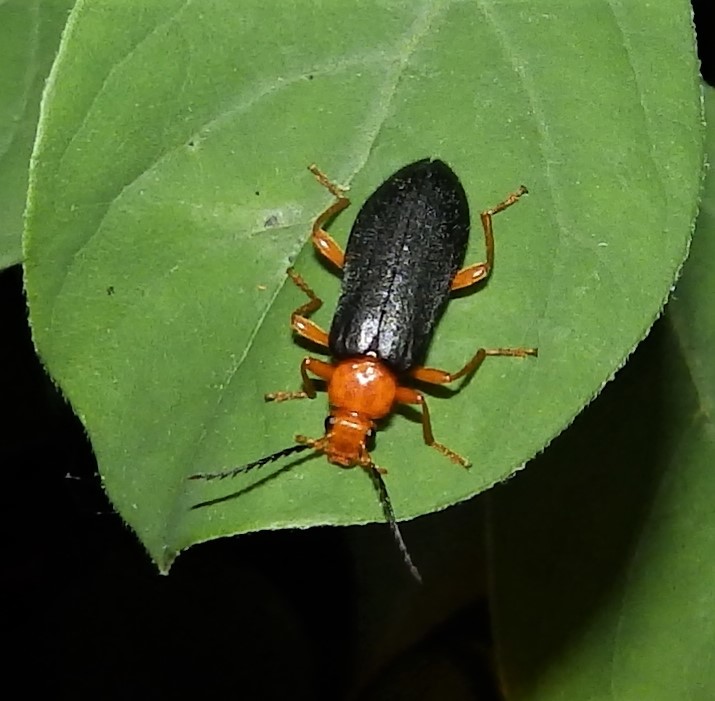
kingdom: Animalia
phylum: Arthropoda
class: Insecta
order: Coleoptera
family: Pyrochroidae
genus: Neopyrochroa
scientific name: Neopyrochroa flabellata
